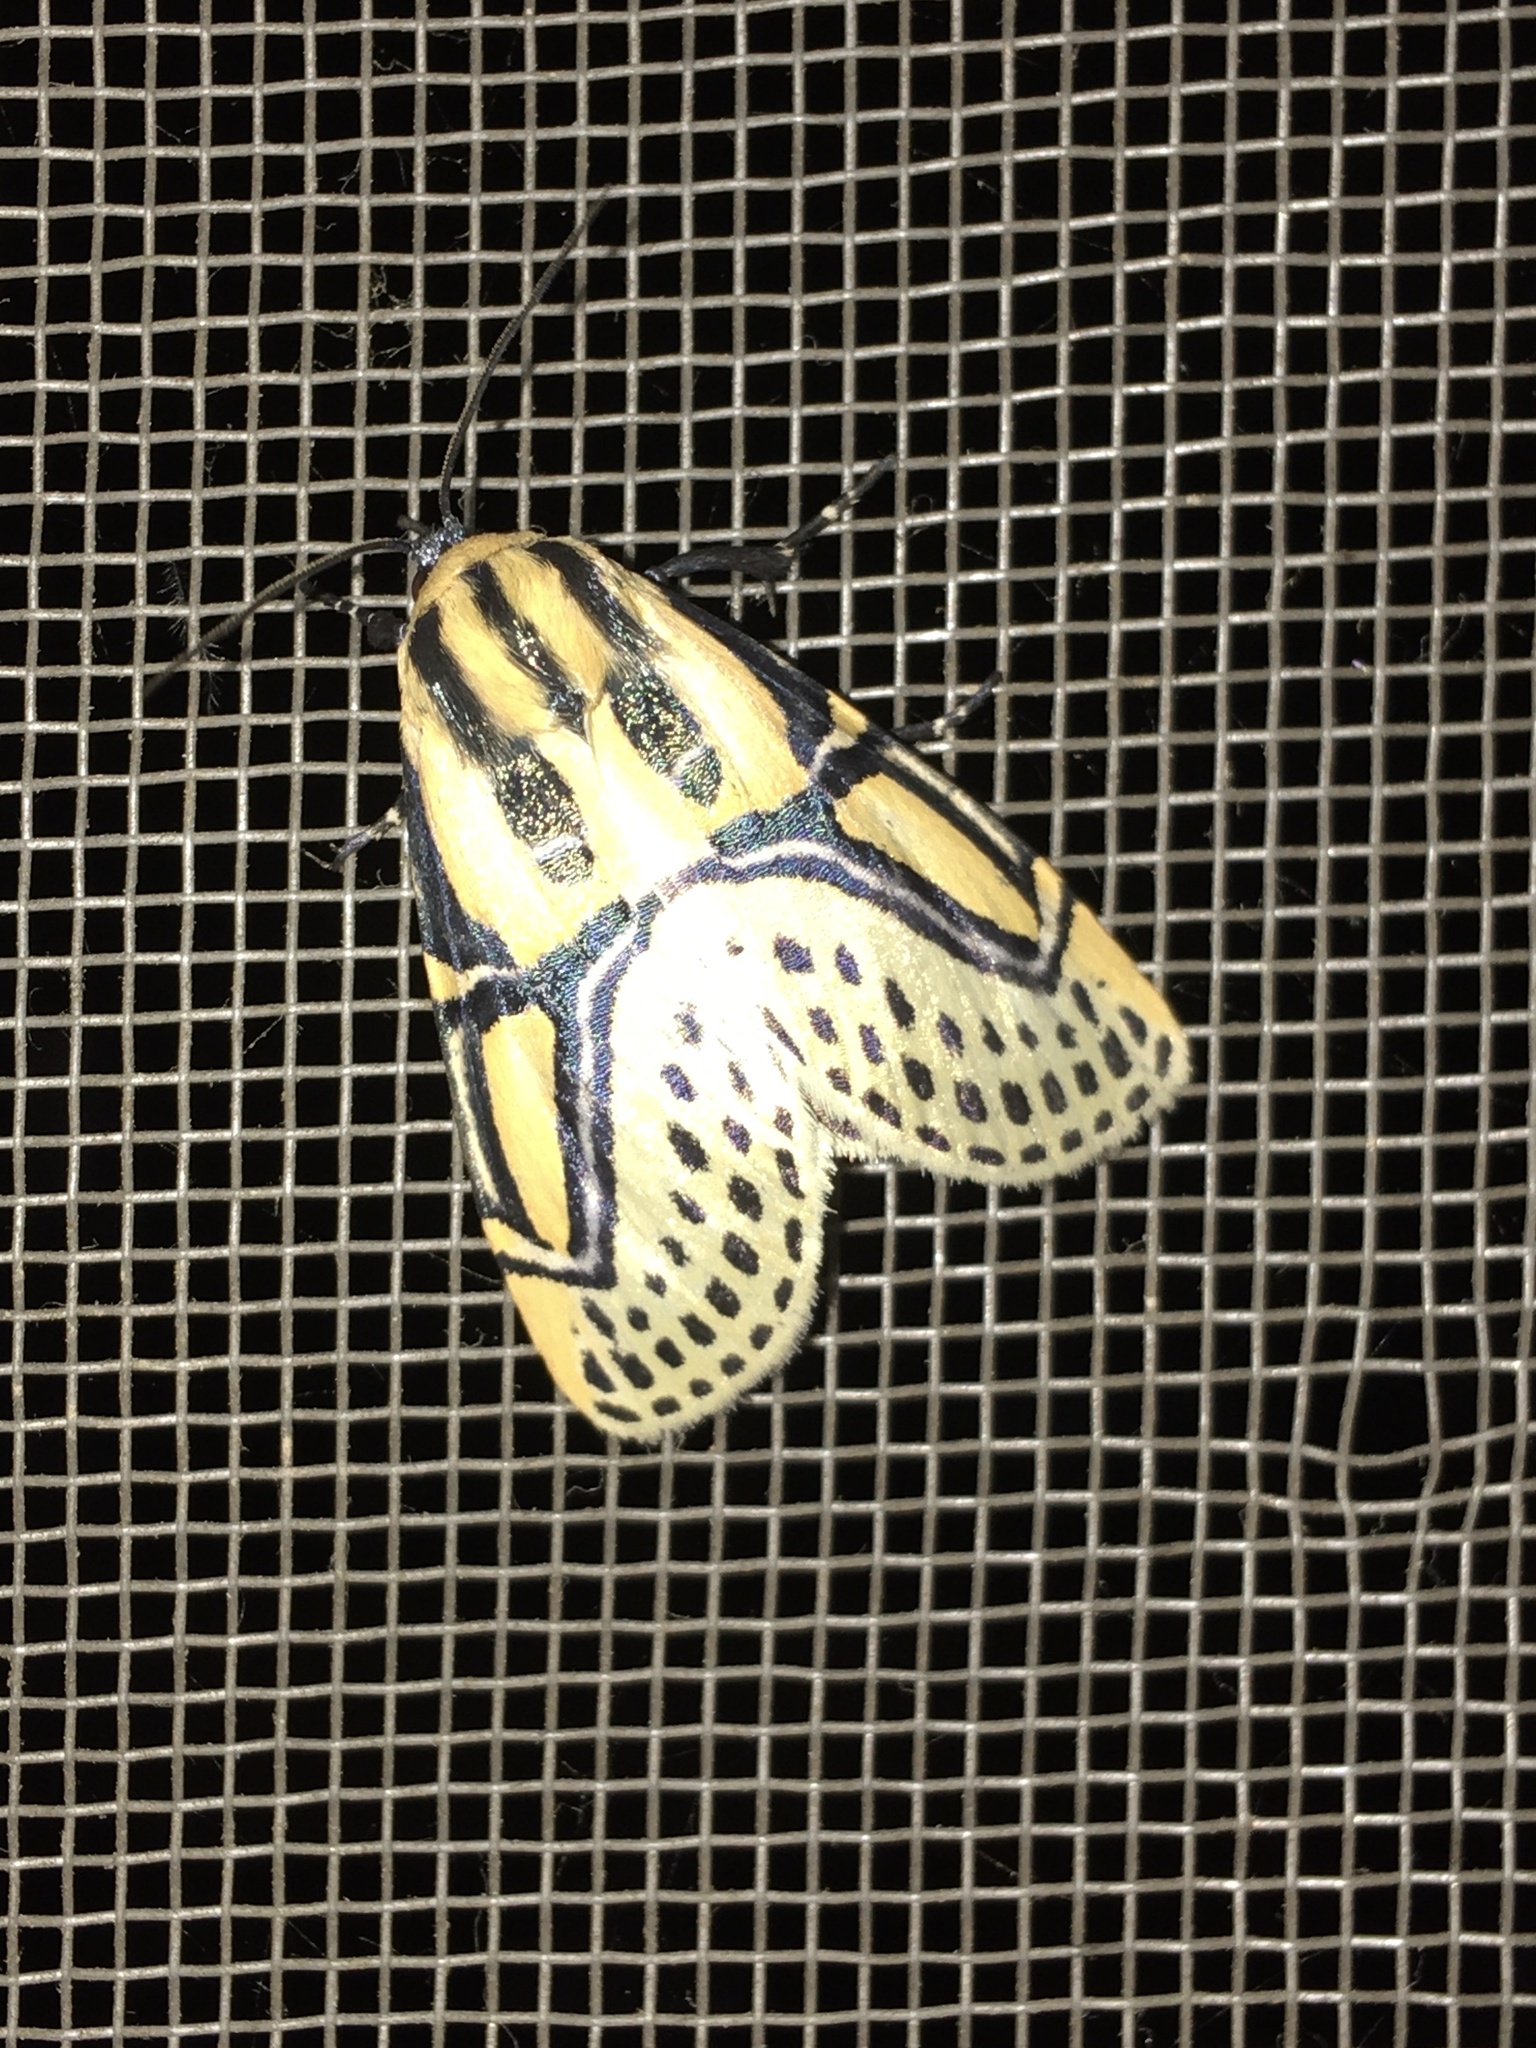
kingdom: Animalia
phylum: Arthropoda
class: Insecta
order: Lepidoptera
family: Erebidae
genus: Diphthera
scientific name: Diphthera festiva
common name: Hieroglyphic moth
